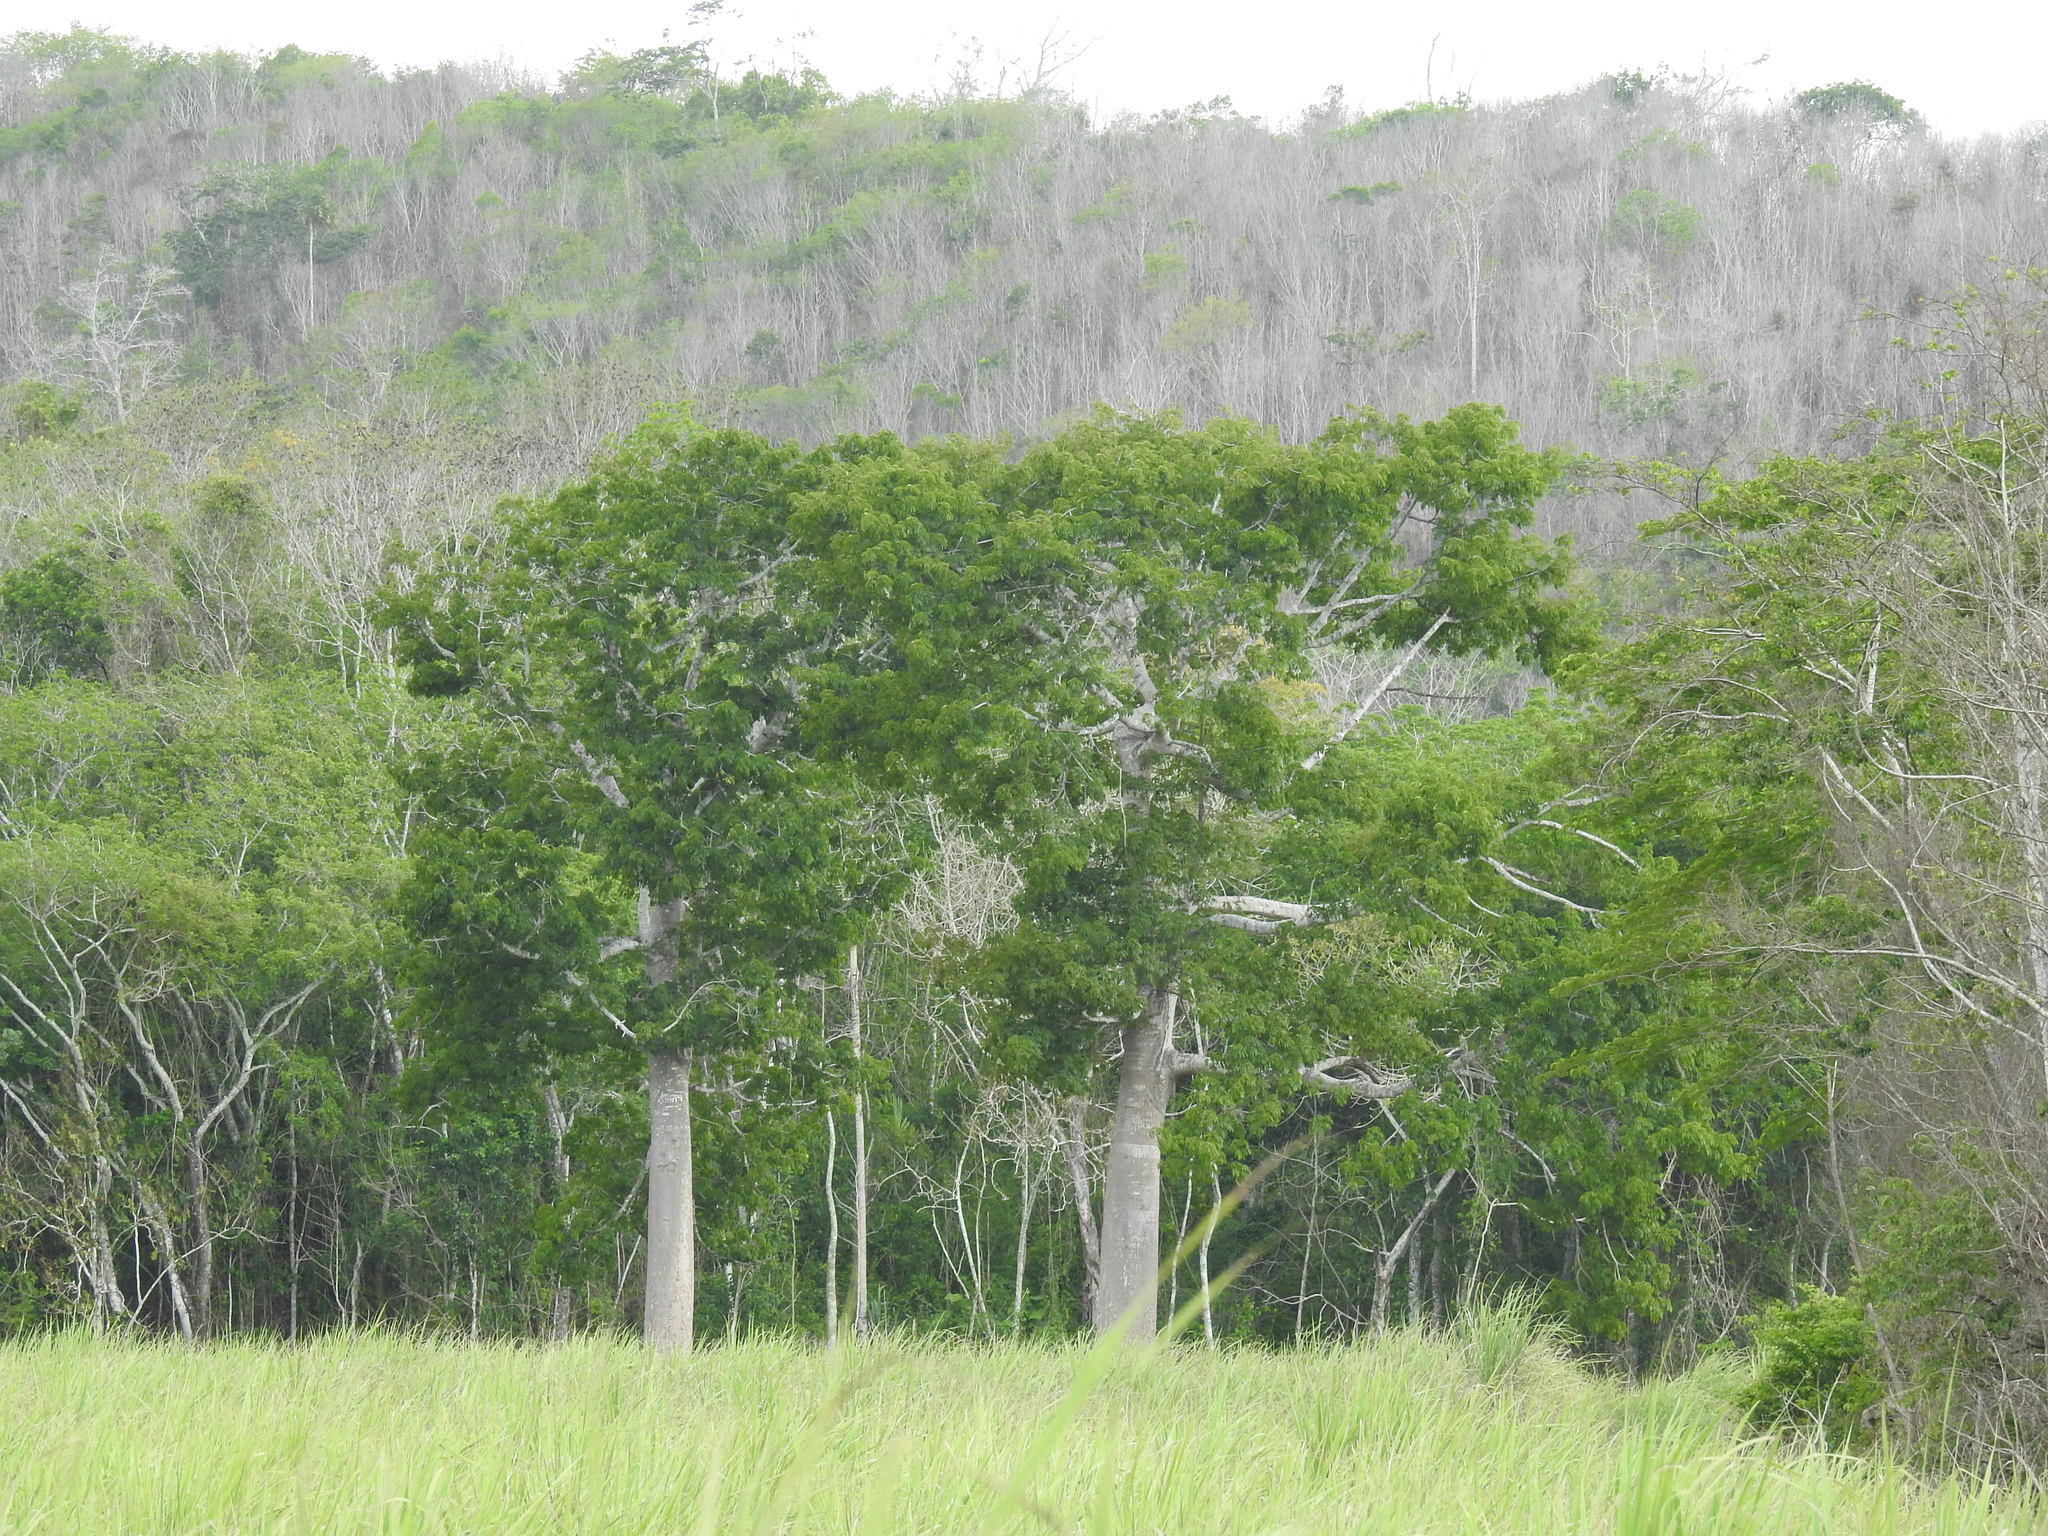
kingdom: Plantae
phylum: Tracheophyta
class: Magnoliopsida
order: Malvales
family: Malvaceae
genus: Ceiba
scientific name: Ceiba pentandra
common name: Kapok
